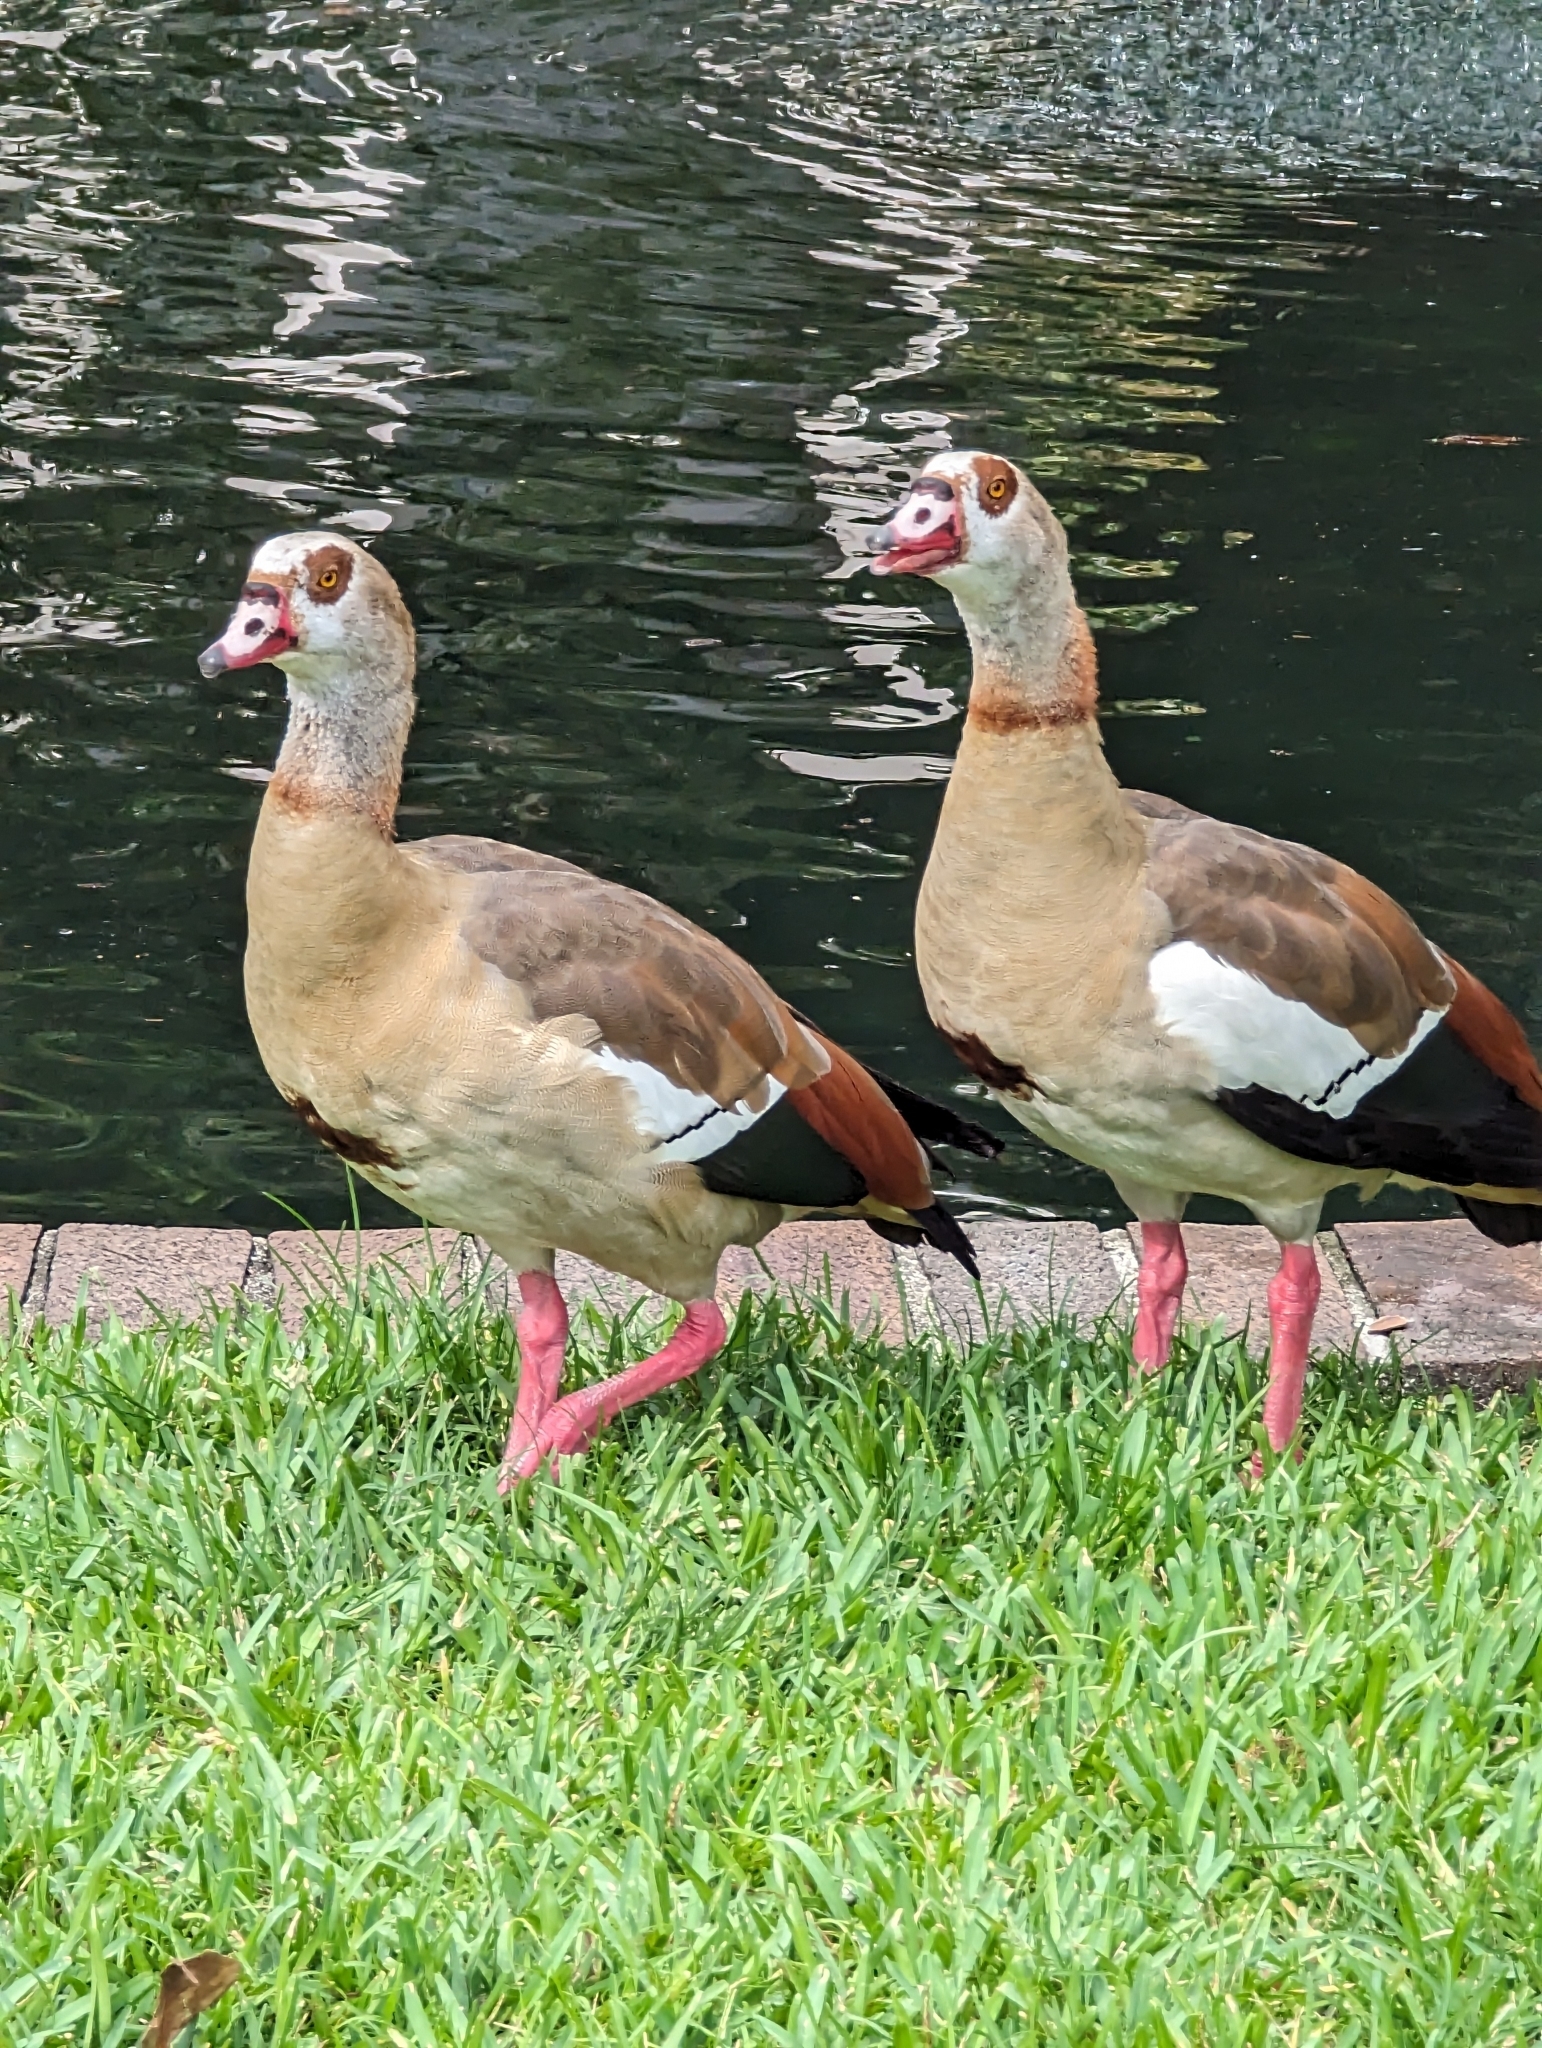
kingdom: Animalia
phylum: Chordata
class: Aves
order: Anseriformes
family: Anatidae
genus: Alopochen
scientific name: Alopochen aegyptiaca
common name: Egyptian goose
